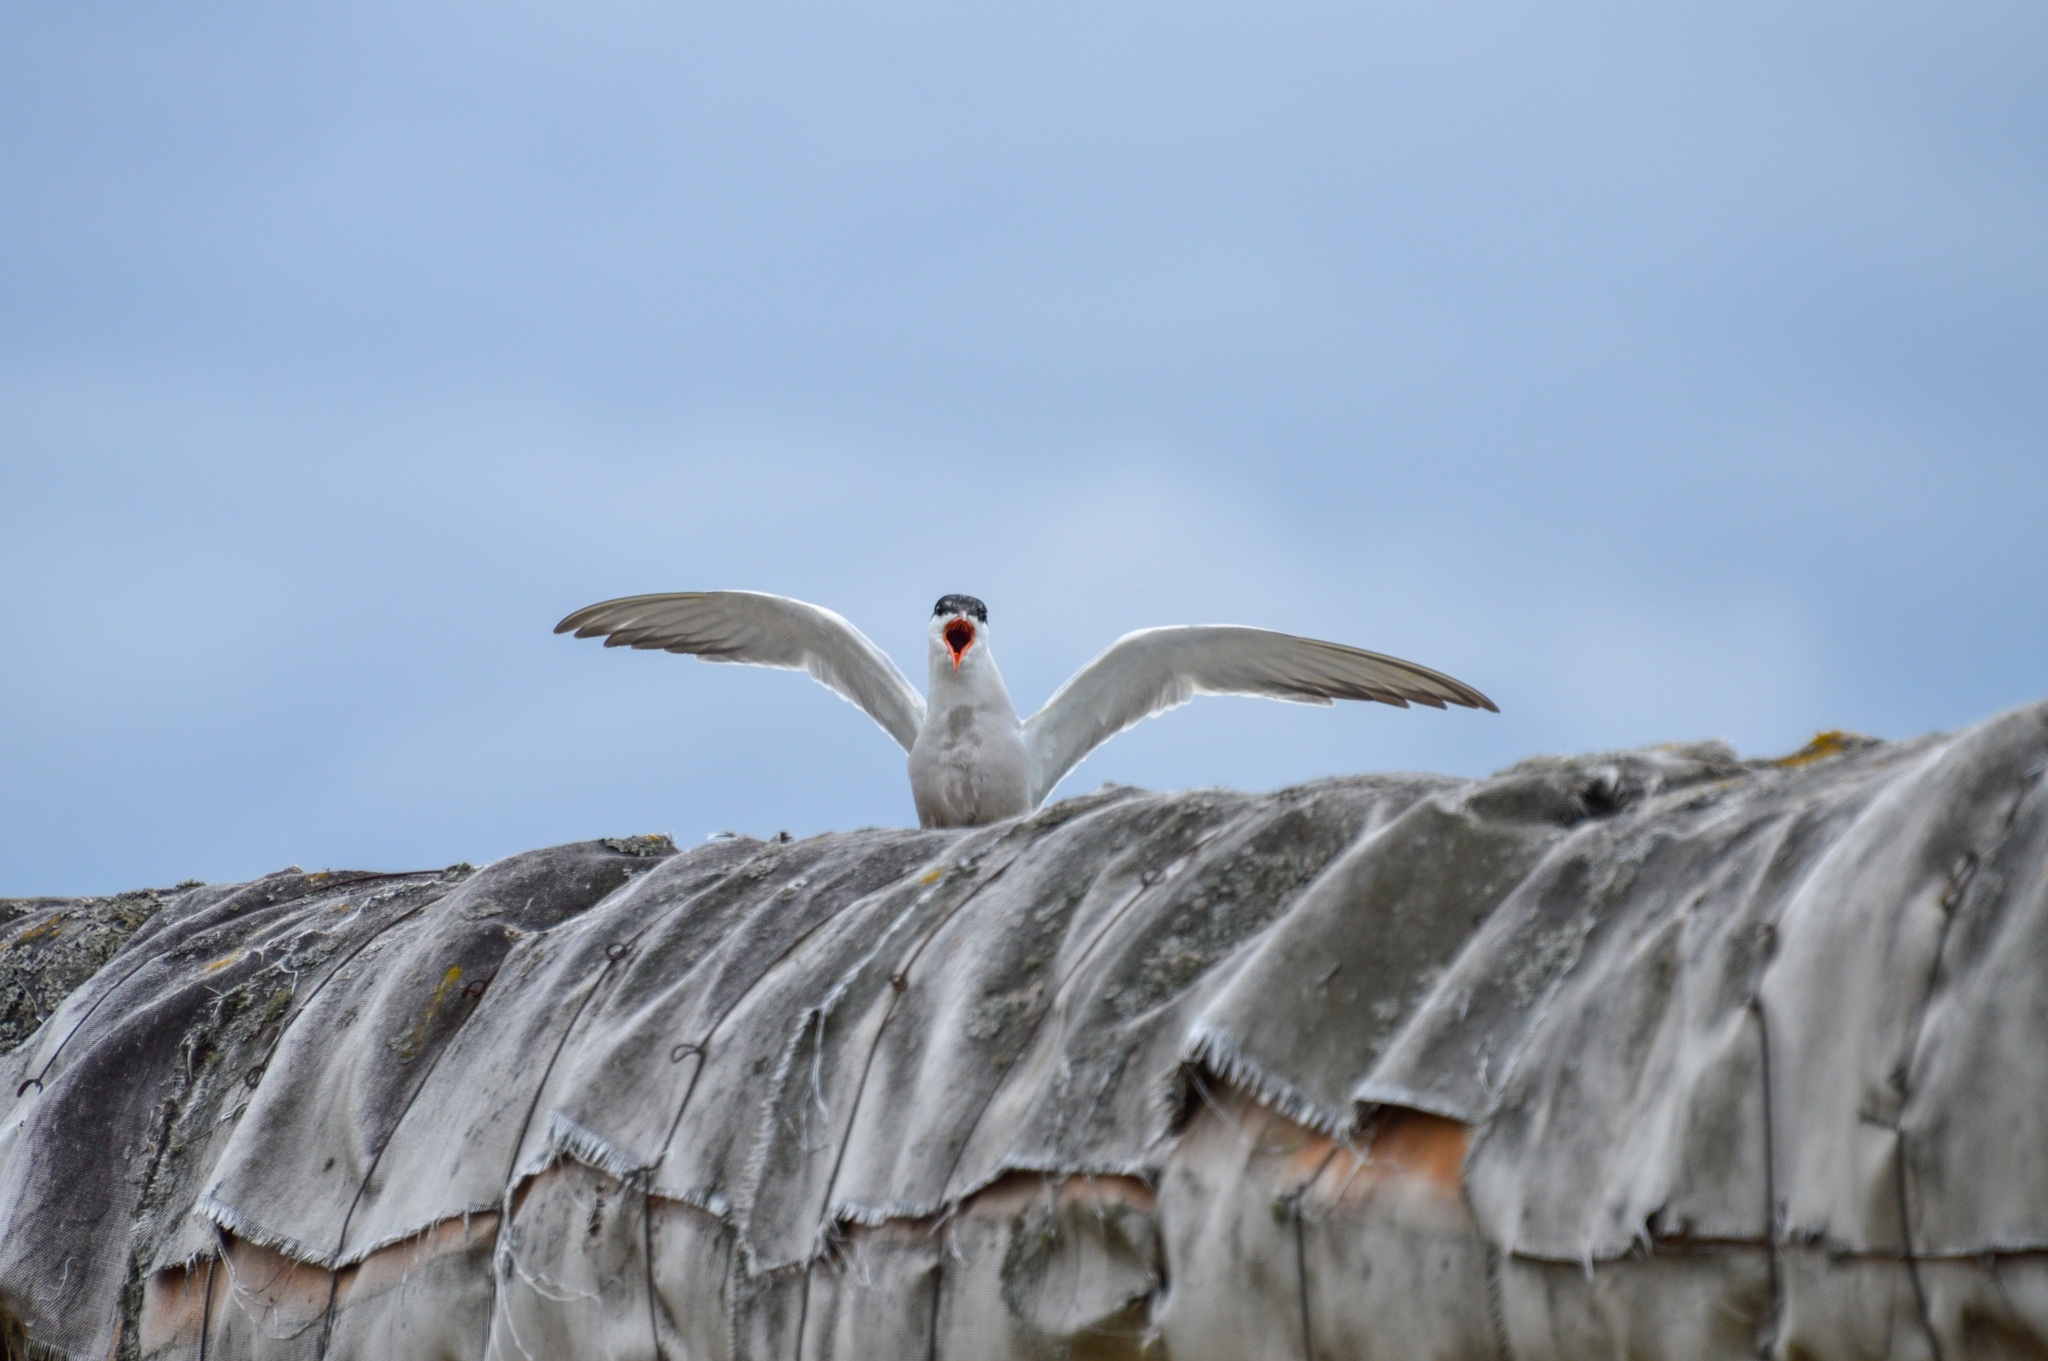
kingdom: Animalia
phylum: Chordata
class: Aves
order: Charadriiformes
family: Laridae
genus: Sterna
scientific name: Sterna hirundo
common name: Common tern
